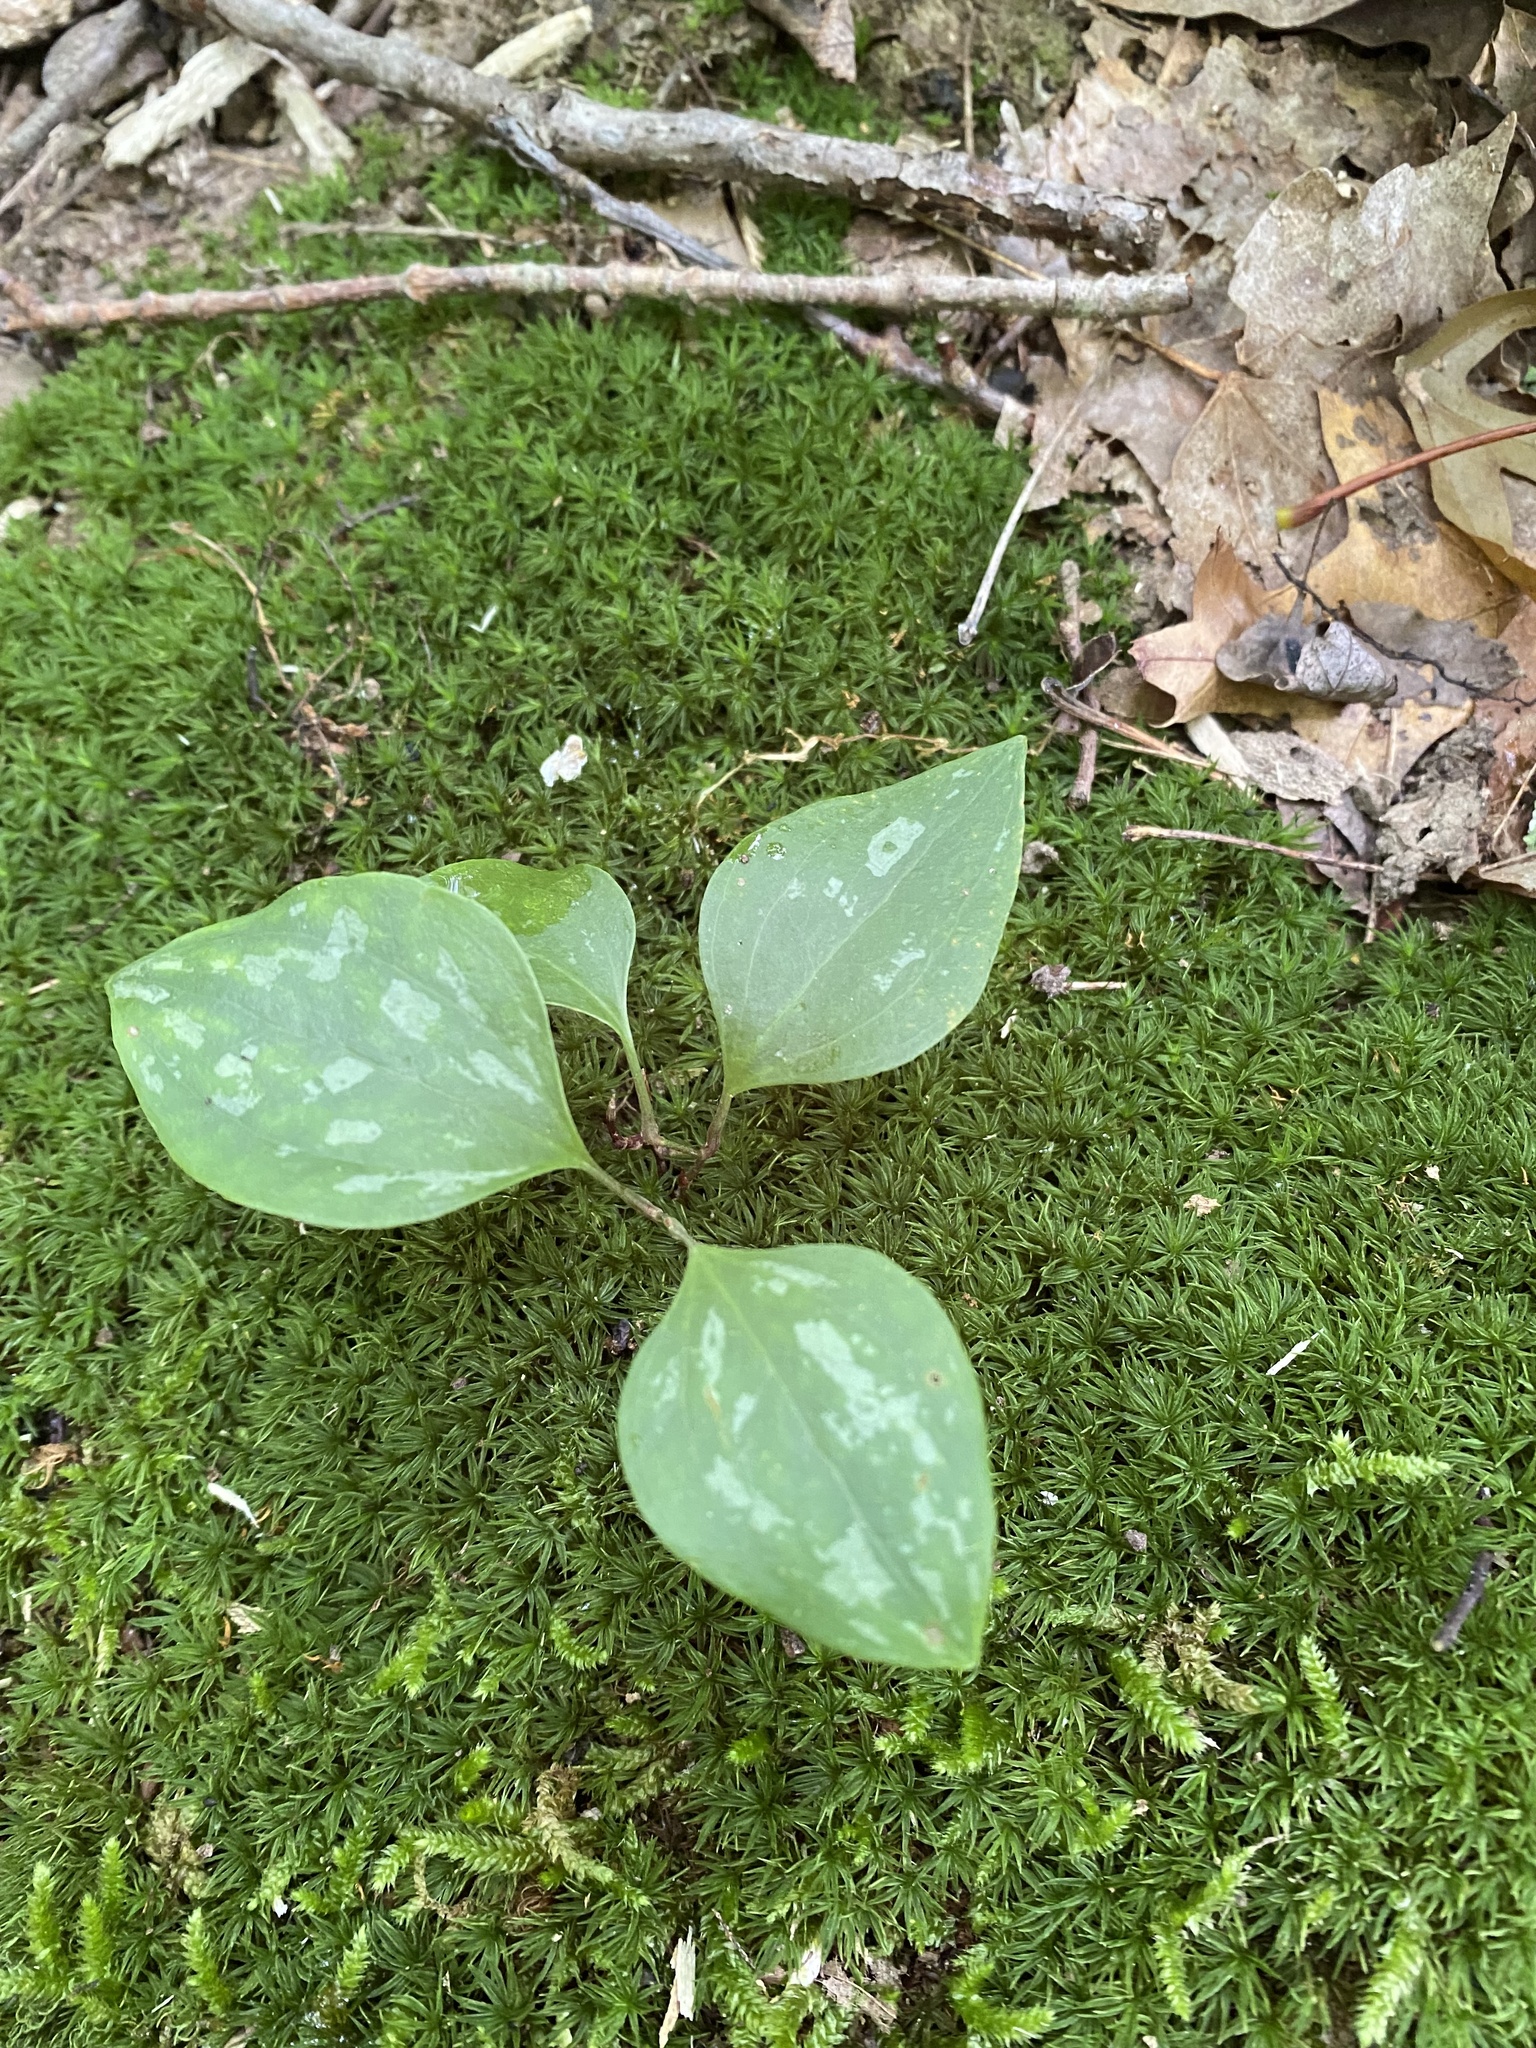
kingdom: Plantae
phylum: Tracheophyta
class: Liliopsida
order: Liliales
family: Smilacaceae
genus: Smilax
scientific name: Smilax glauca
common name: Cat greenbrier
